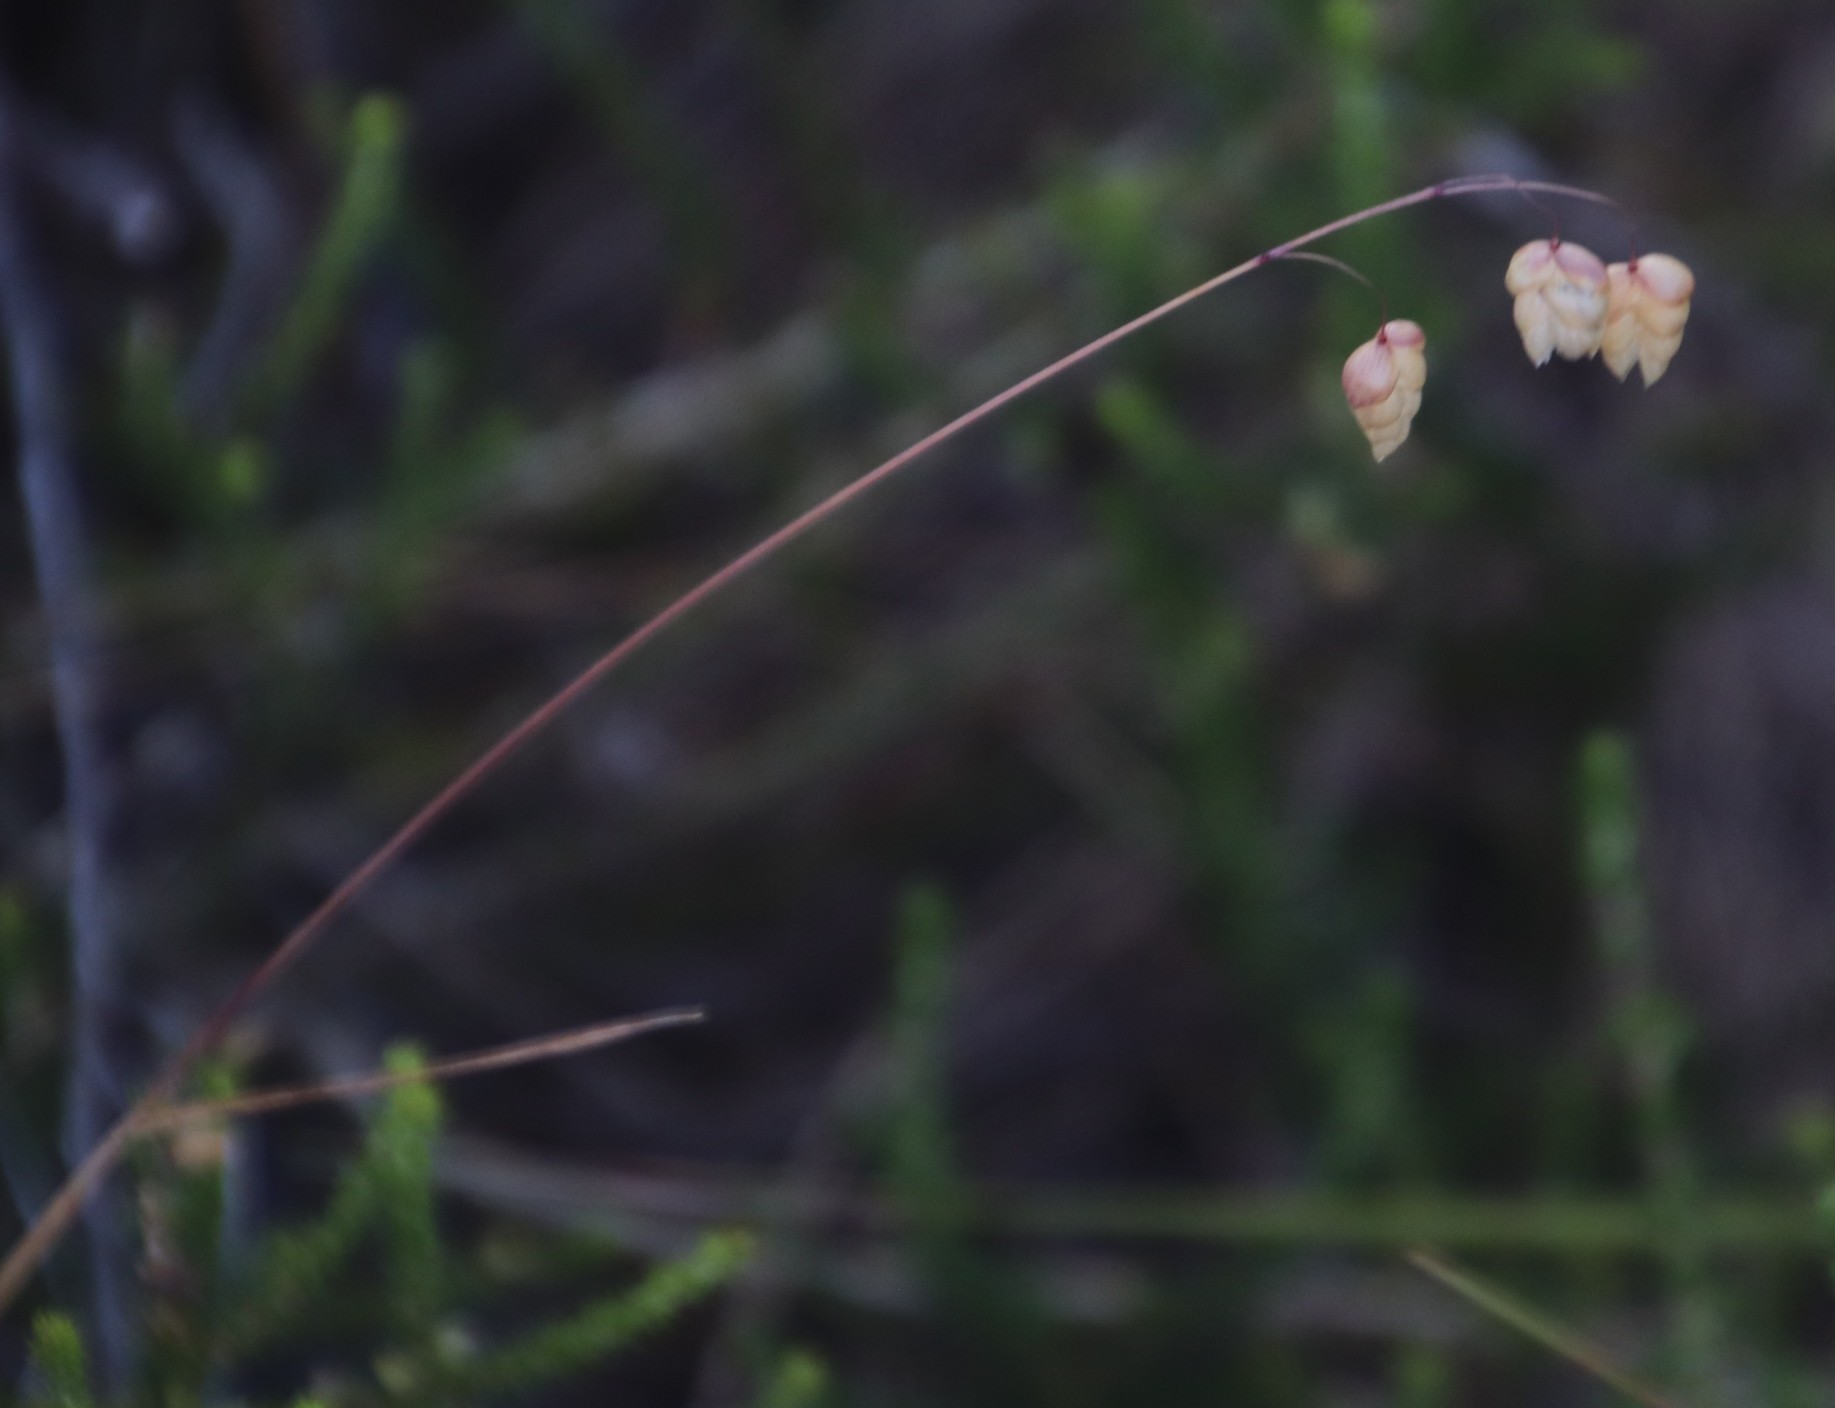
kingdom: Plantae
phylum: Tracheophyta
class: Liliopsida
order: Poales
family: Poaceae
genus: Briza
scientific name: Briza maxima
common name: Big quakinggrass
